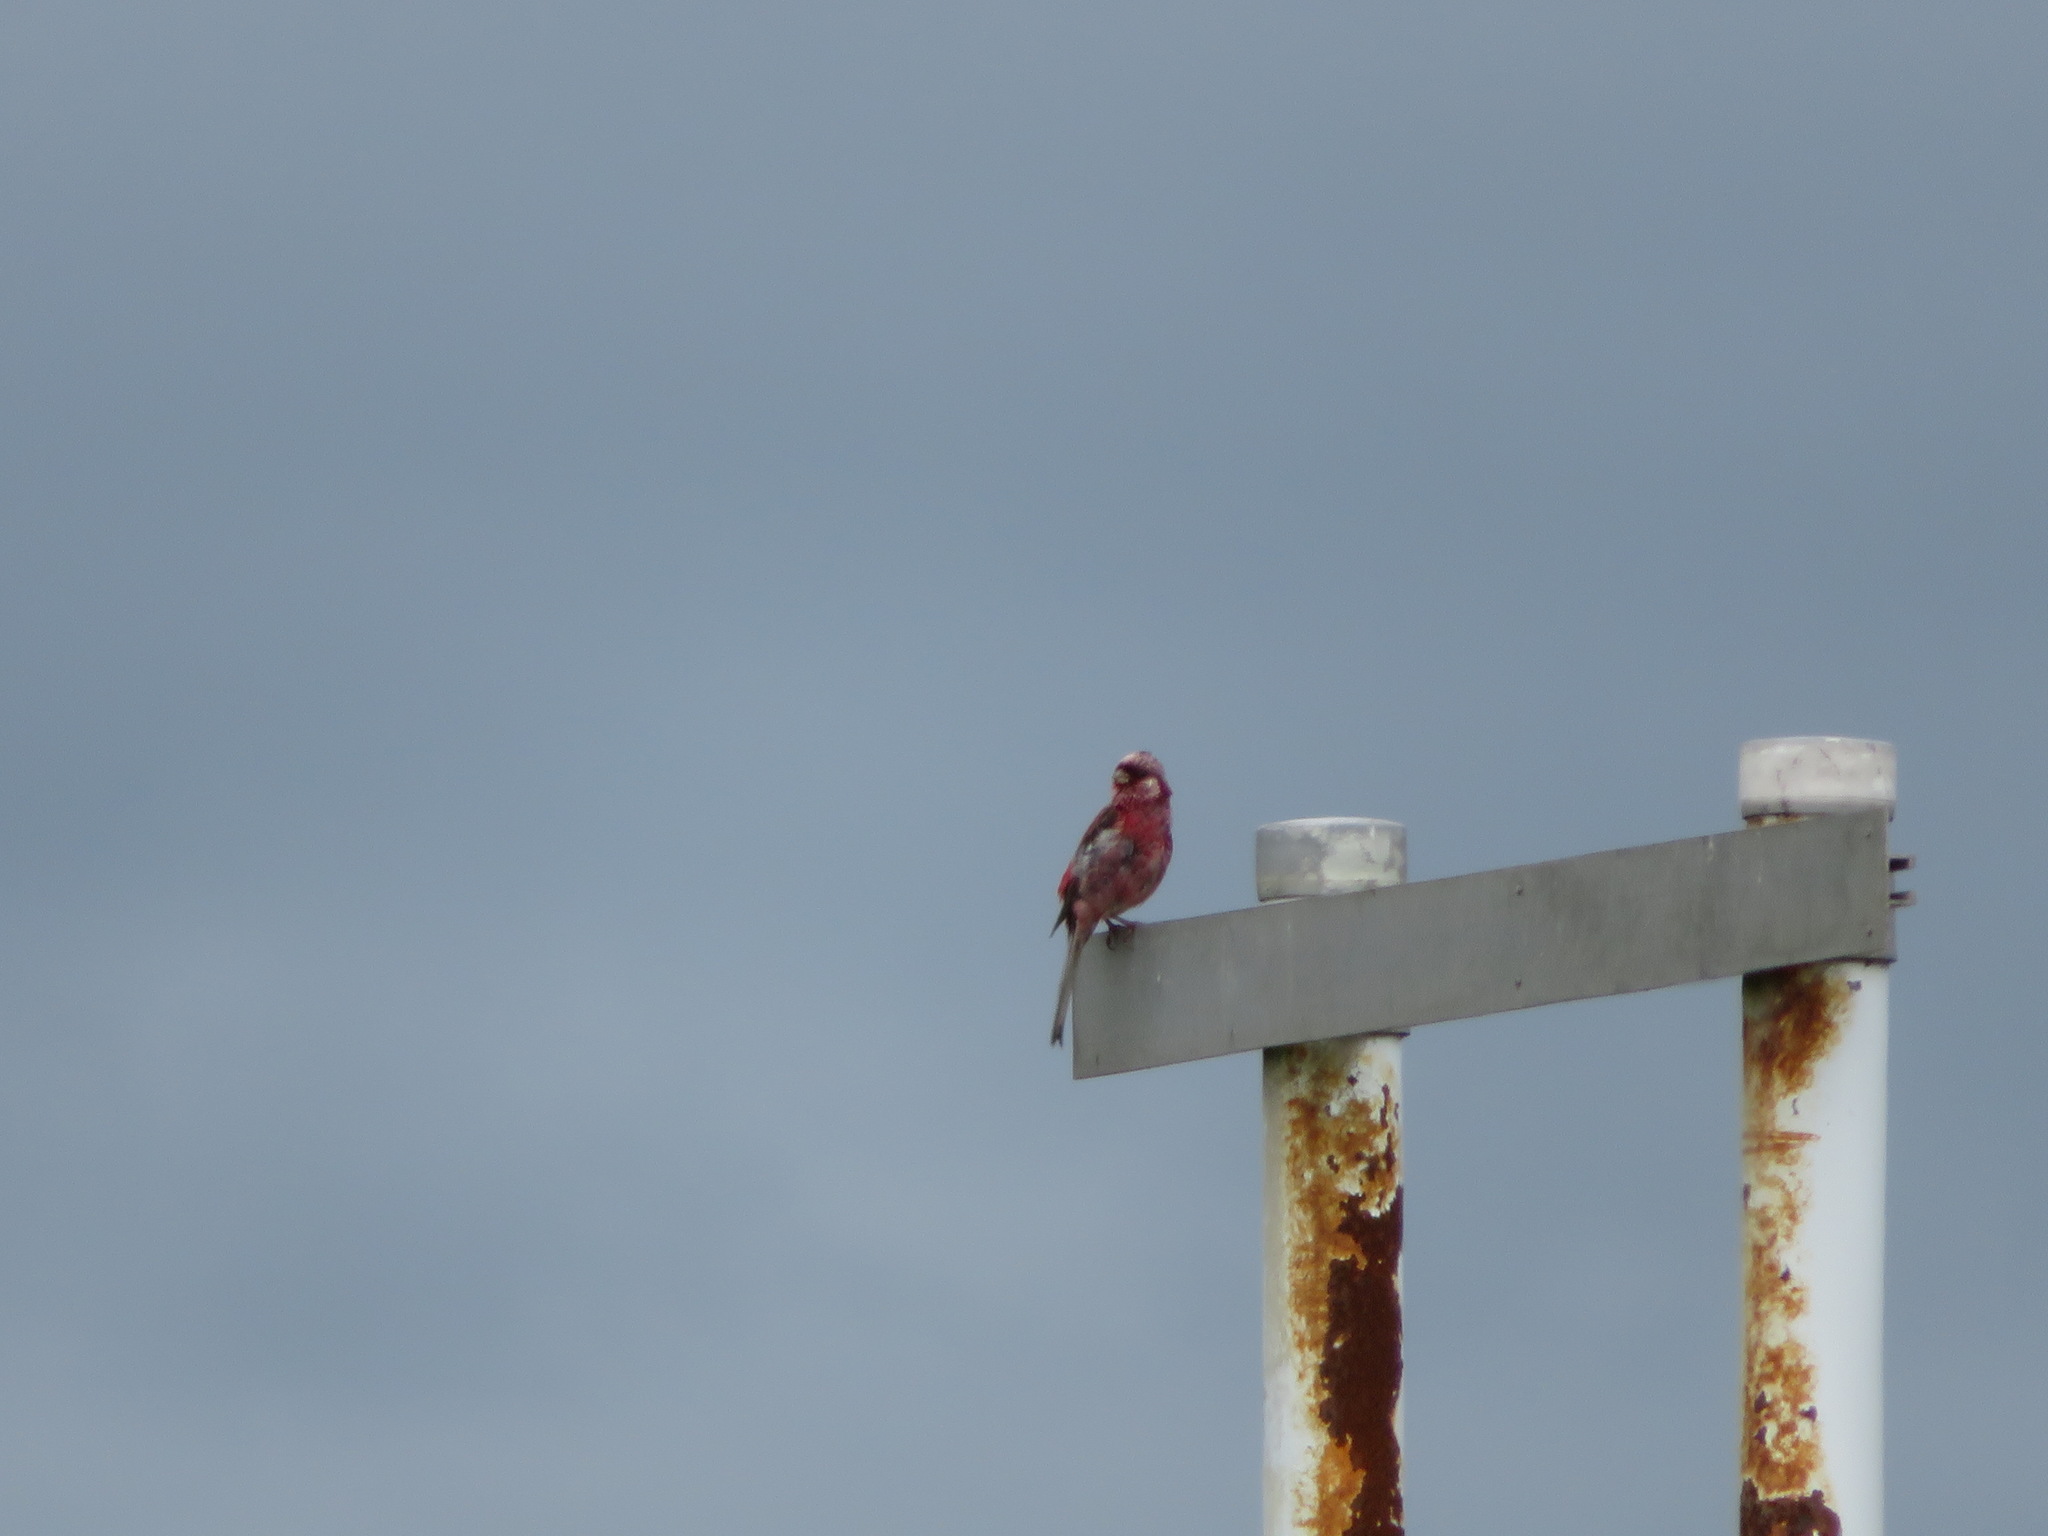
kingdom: Animalia
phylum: Chordata
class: Aves
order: Passeriformes
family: Fringillidae
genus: Carpodacus
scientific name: Carpodacus sibiricus
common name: Long-tailed rosefinch
